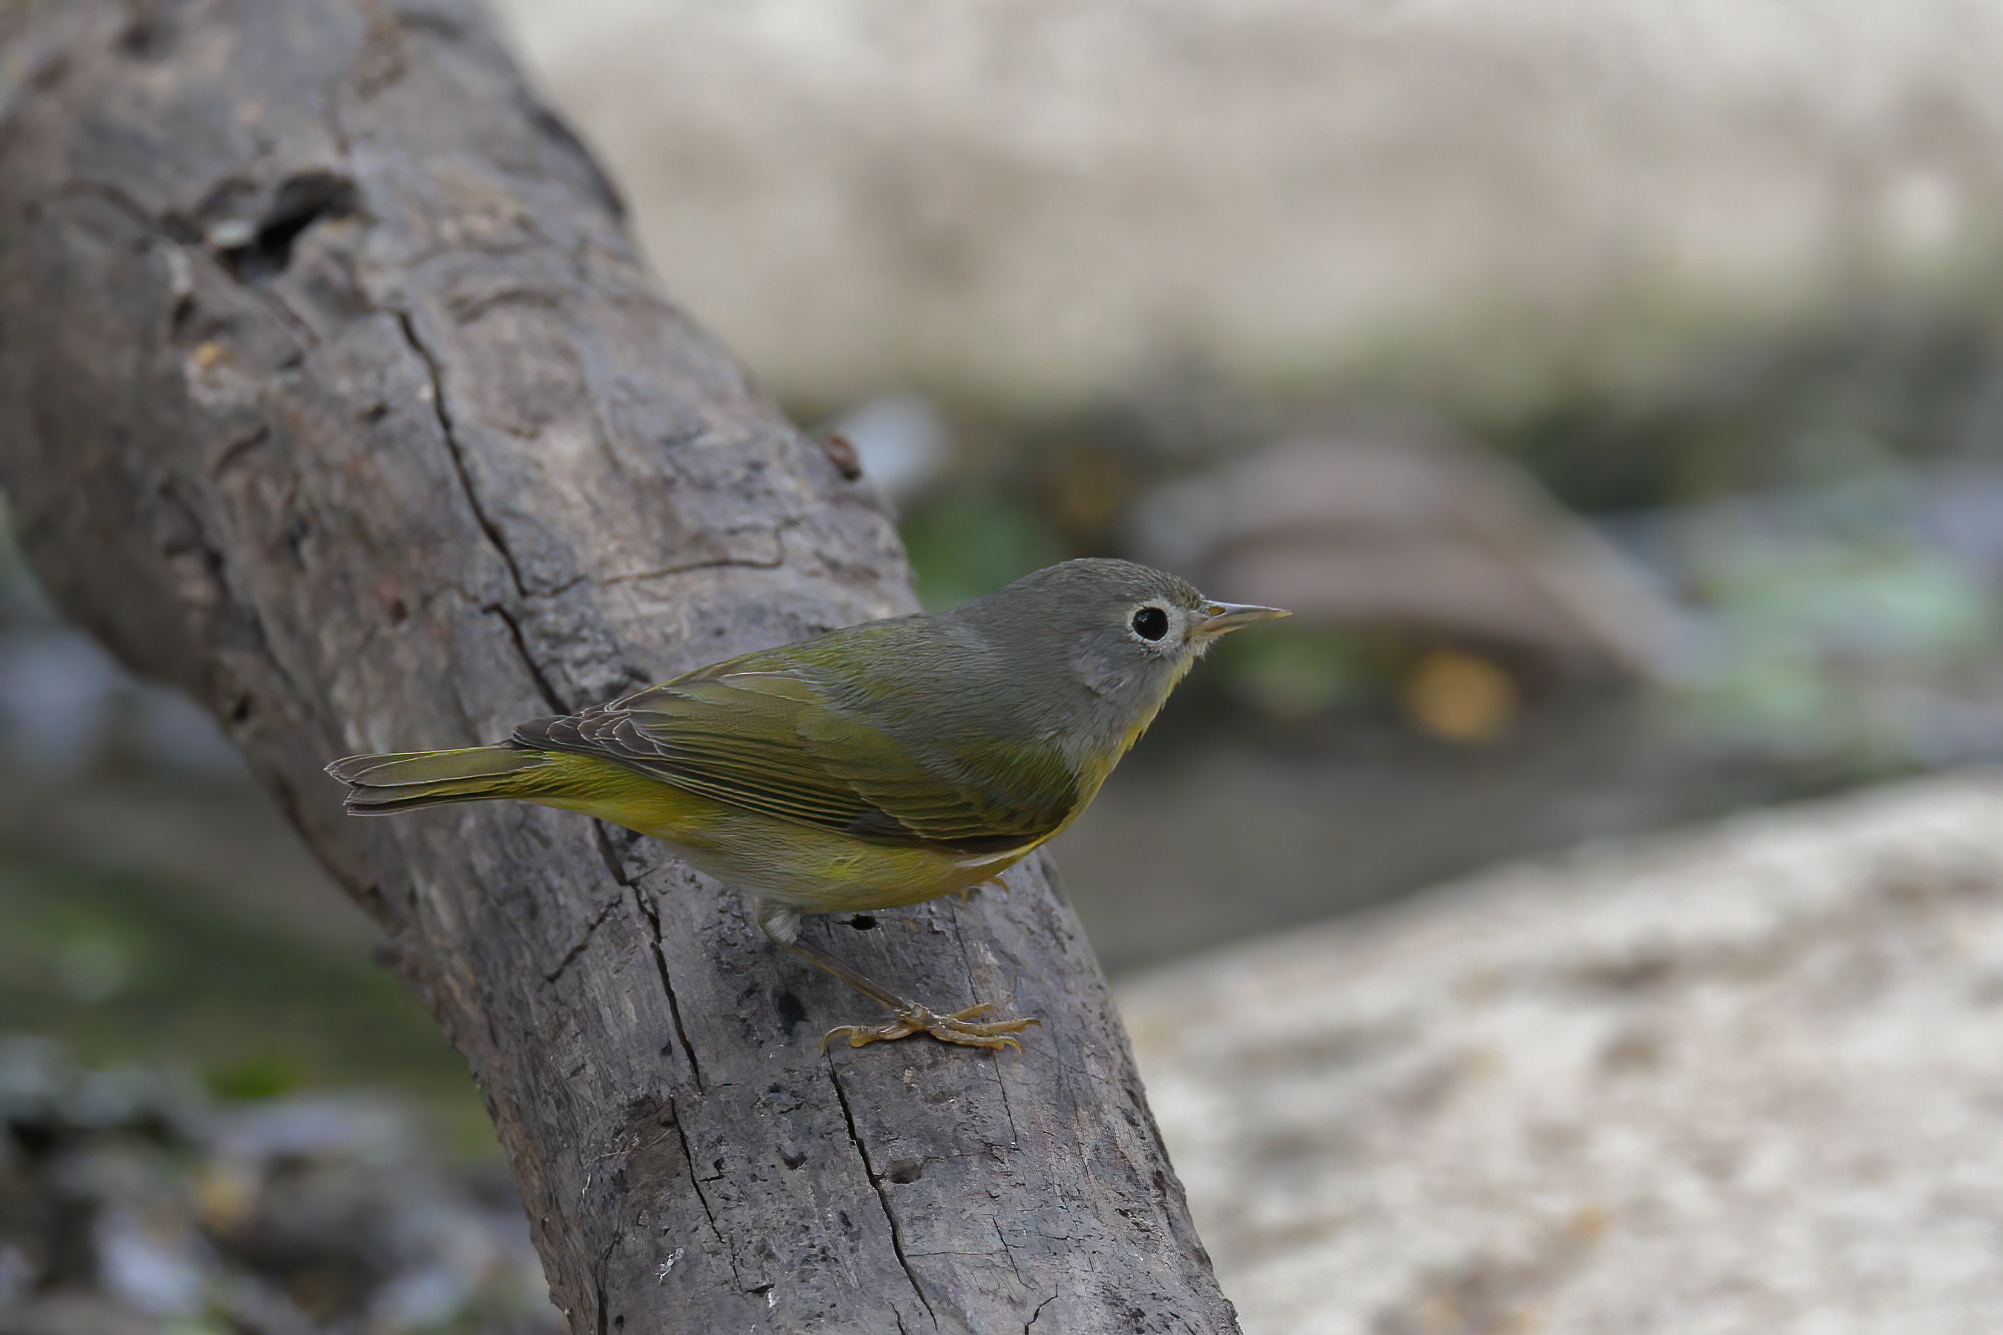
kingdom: Animalia
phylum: Chordata
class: Aves
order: Passeriformes
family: Parulidae
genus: Leiothlypis
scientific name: Leiothlypis ruficapilla
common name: Nashville warbler
